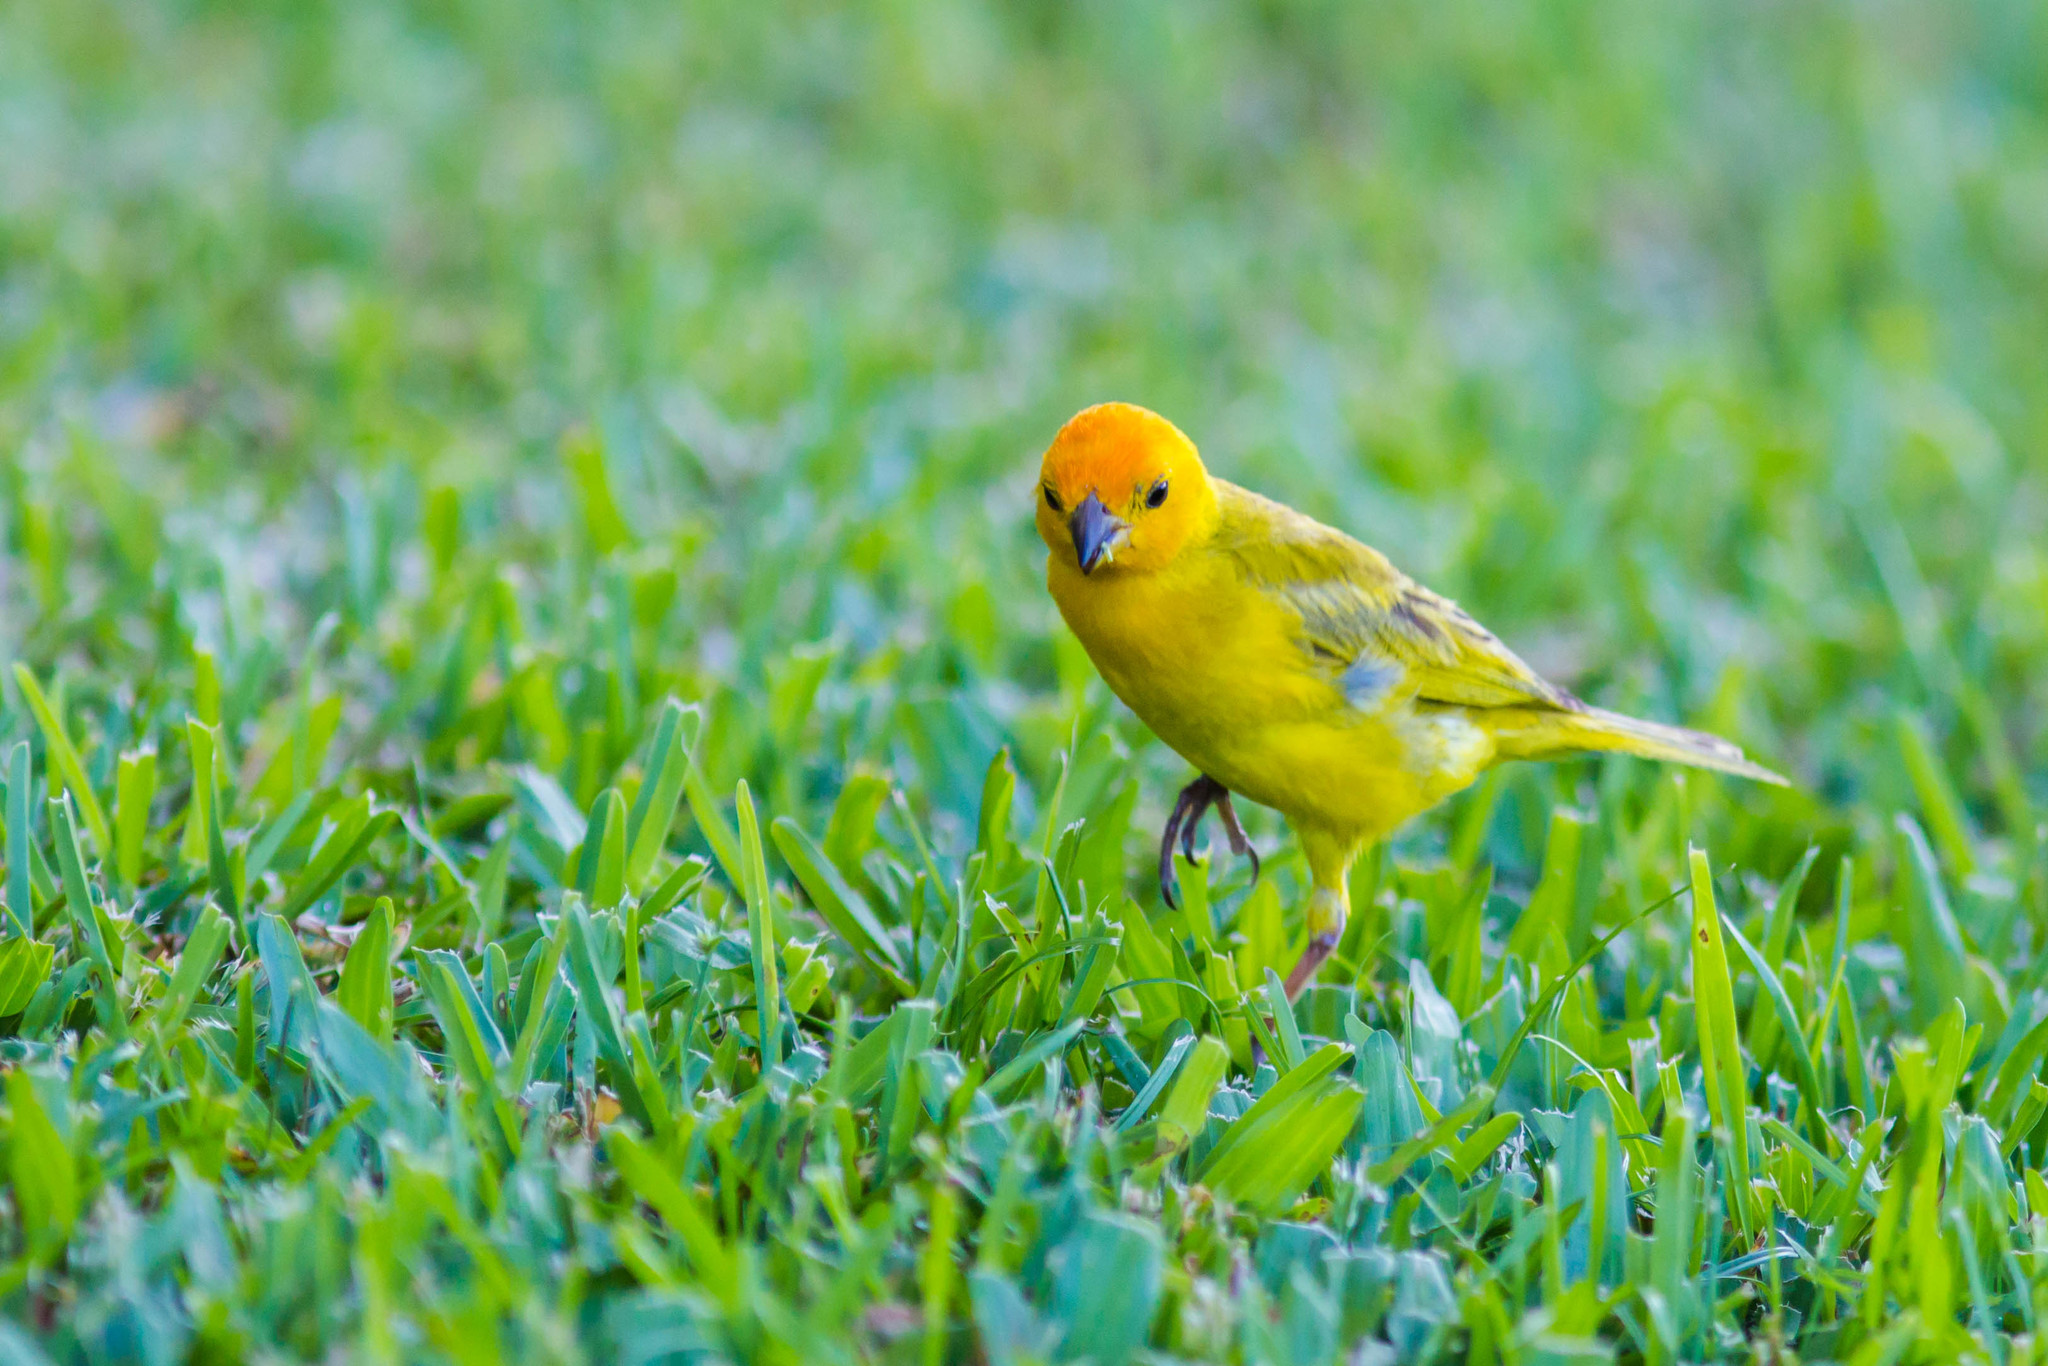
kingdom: Animalia
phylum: Chordata
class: Aves
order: Passeriformes
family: Thraupidae
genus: Sicalis
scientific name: Sicalis flaveola
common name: Saffron finch
